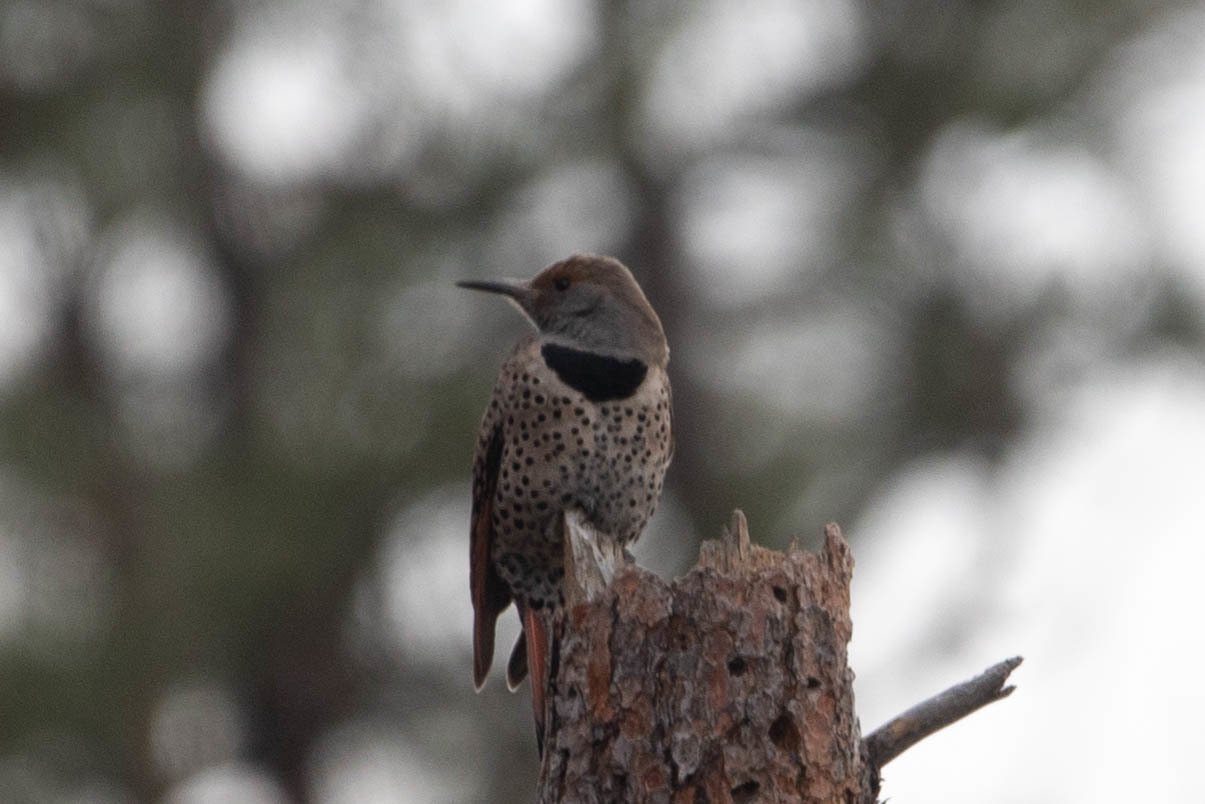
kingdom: Animalia
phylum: Chordata
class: Aves
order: Piciformes
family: Picidae
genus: Colaptes
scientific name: Colaptes auratus
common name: Northern flicker
